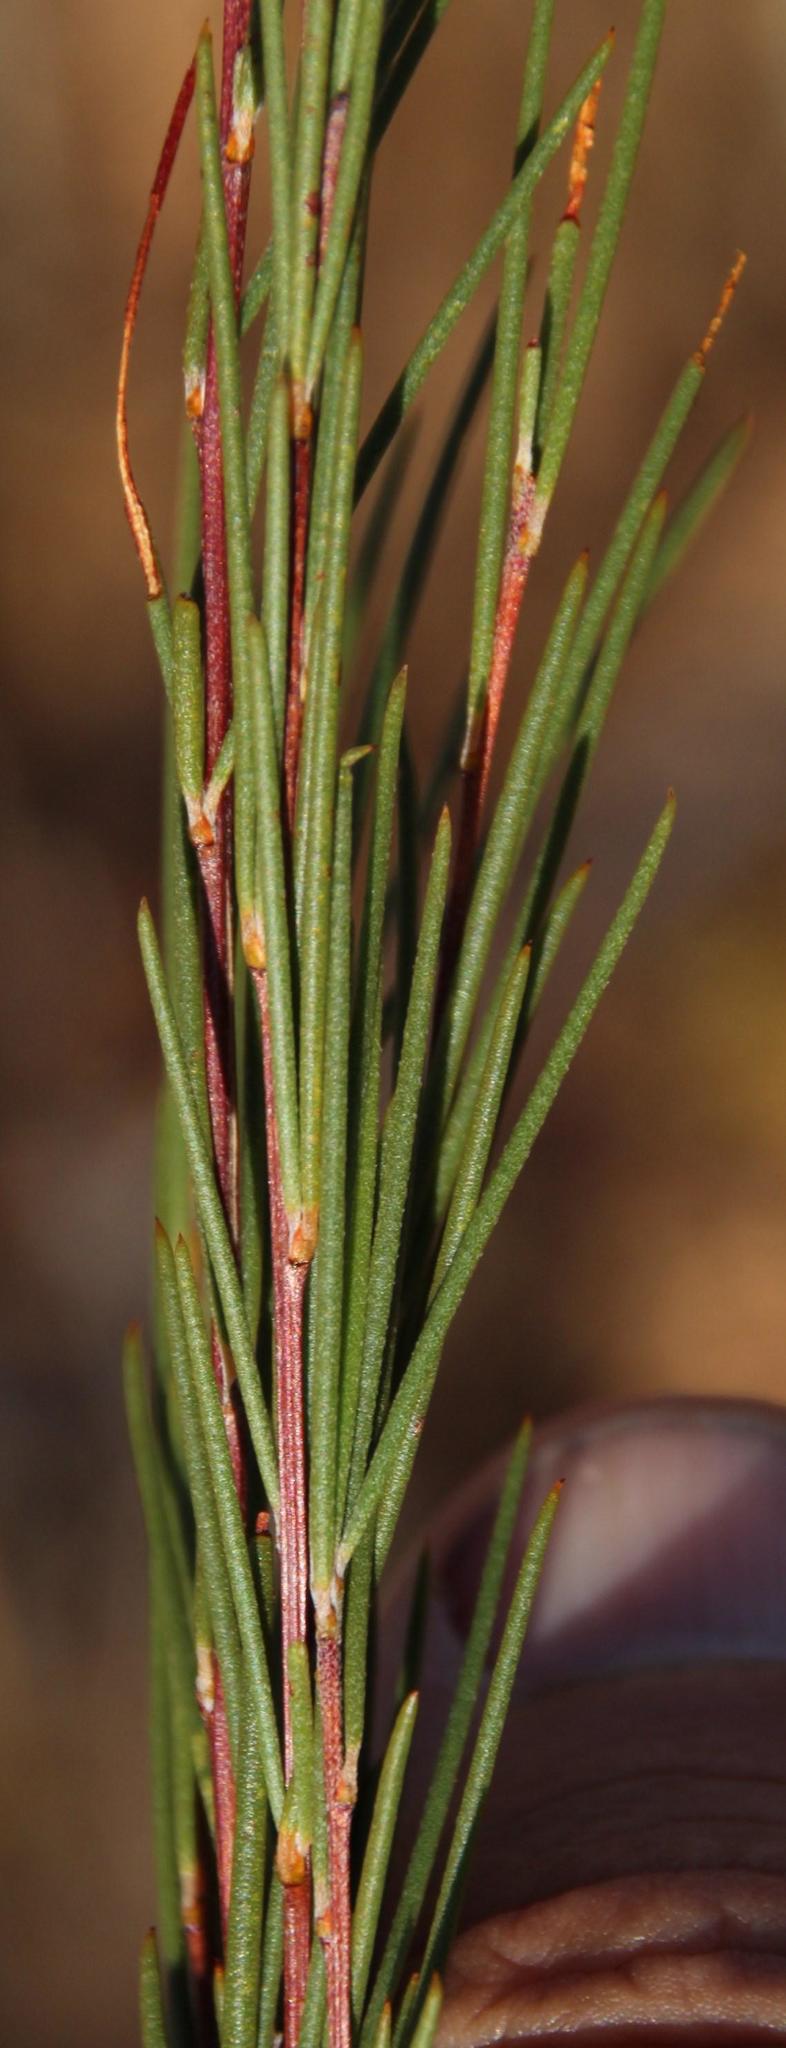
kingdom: Plantae
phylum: Tracheophyta
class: Magnoliopsida
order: Fabales
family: Fabaceae
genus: Aspalathus
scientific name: Aspalathus linearis
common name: Rooibos-tea
